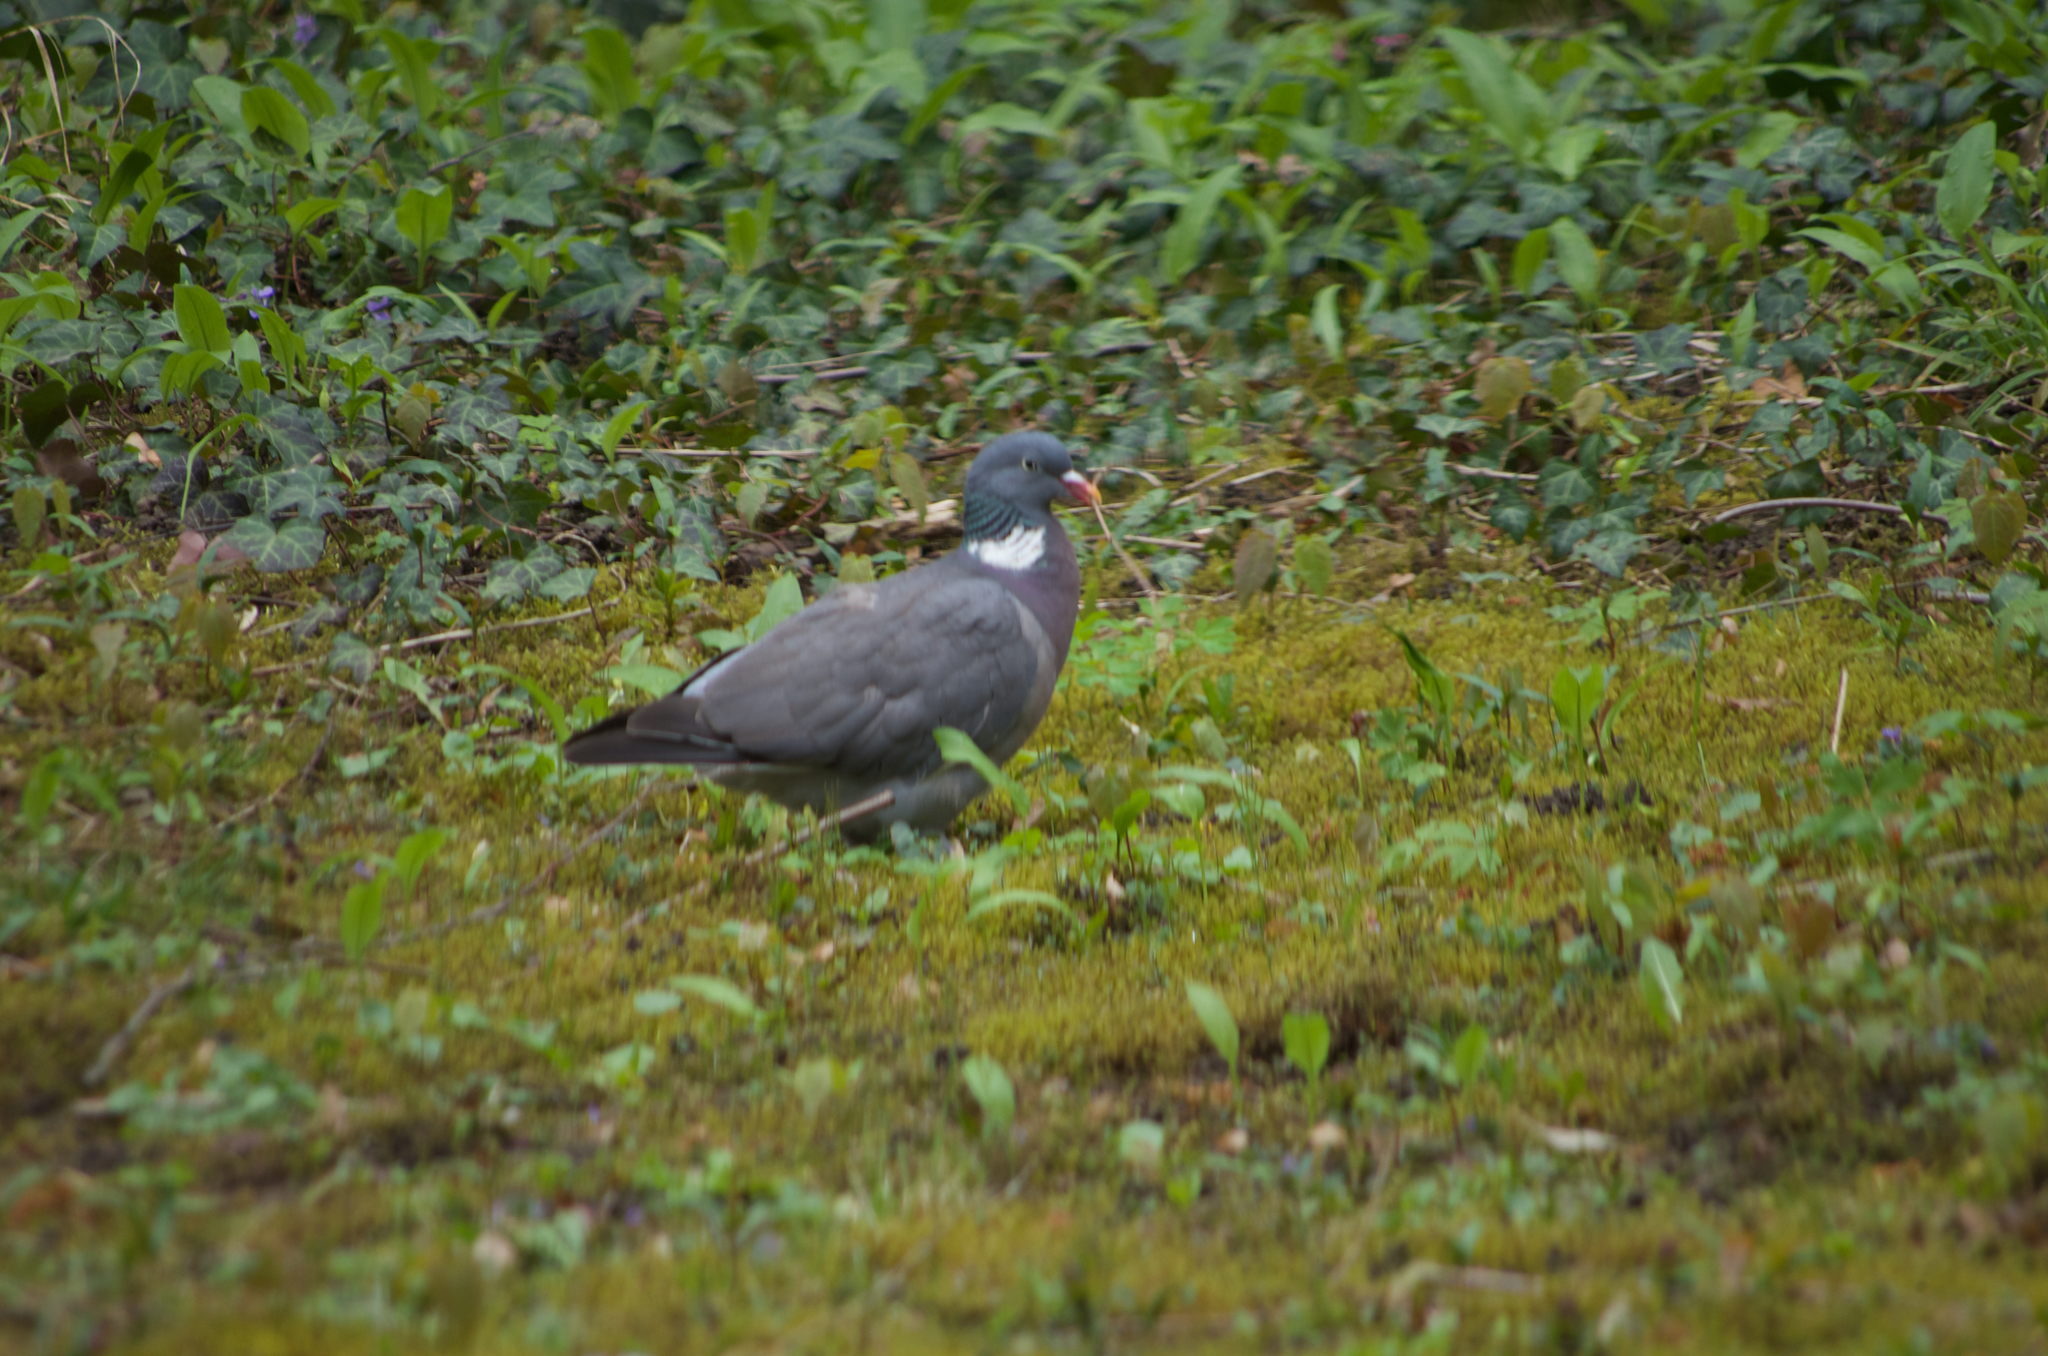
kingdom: Animalia
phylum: Chordata
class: Aves
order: Columbiformes
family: Columbidae
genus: Columba
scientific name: Columba palumbus
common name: Common wood pigeon
